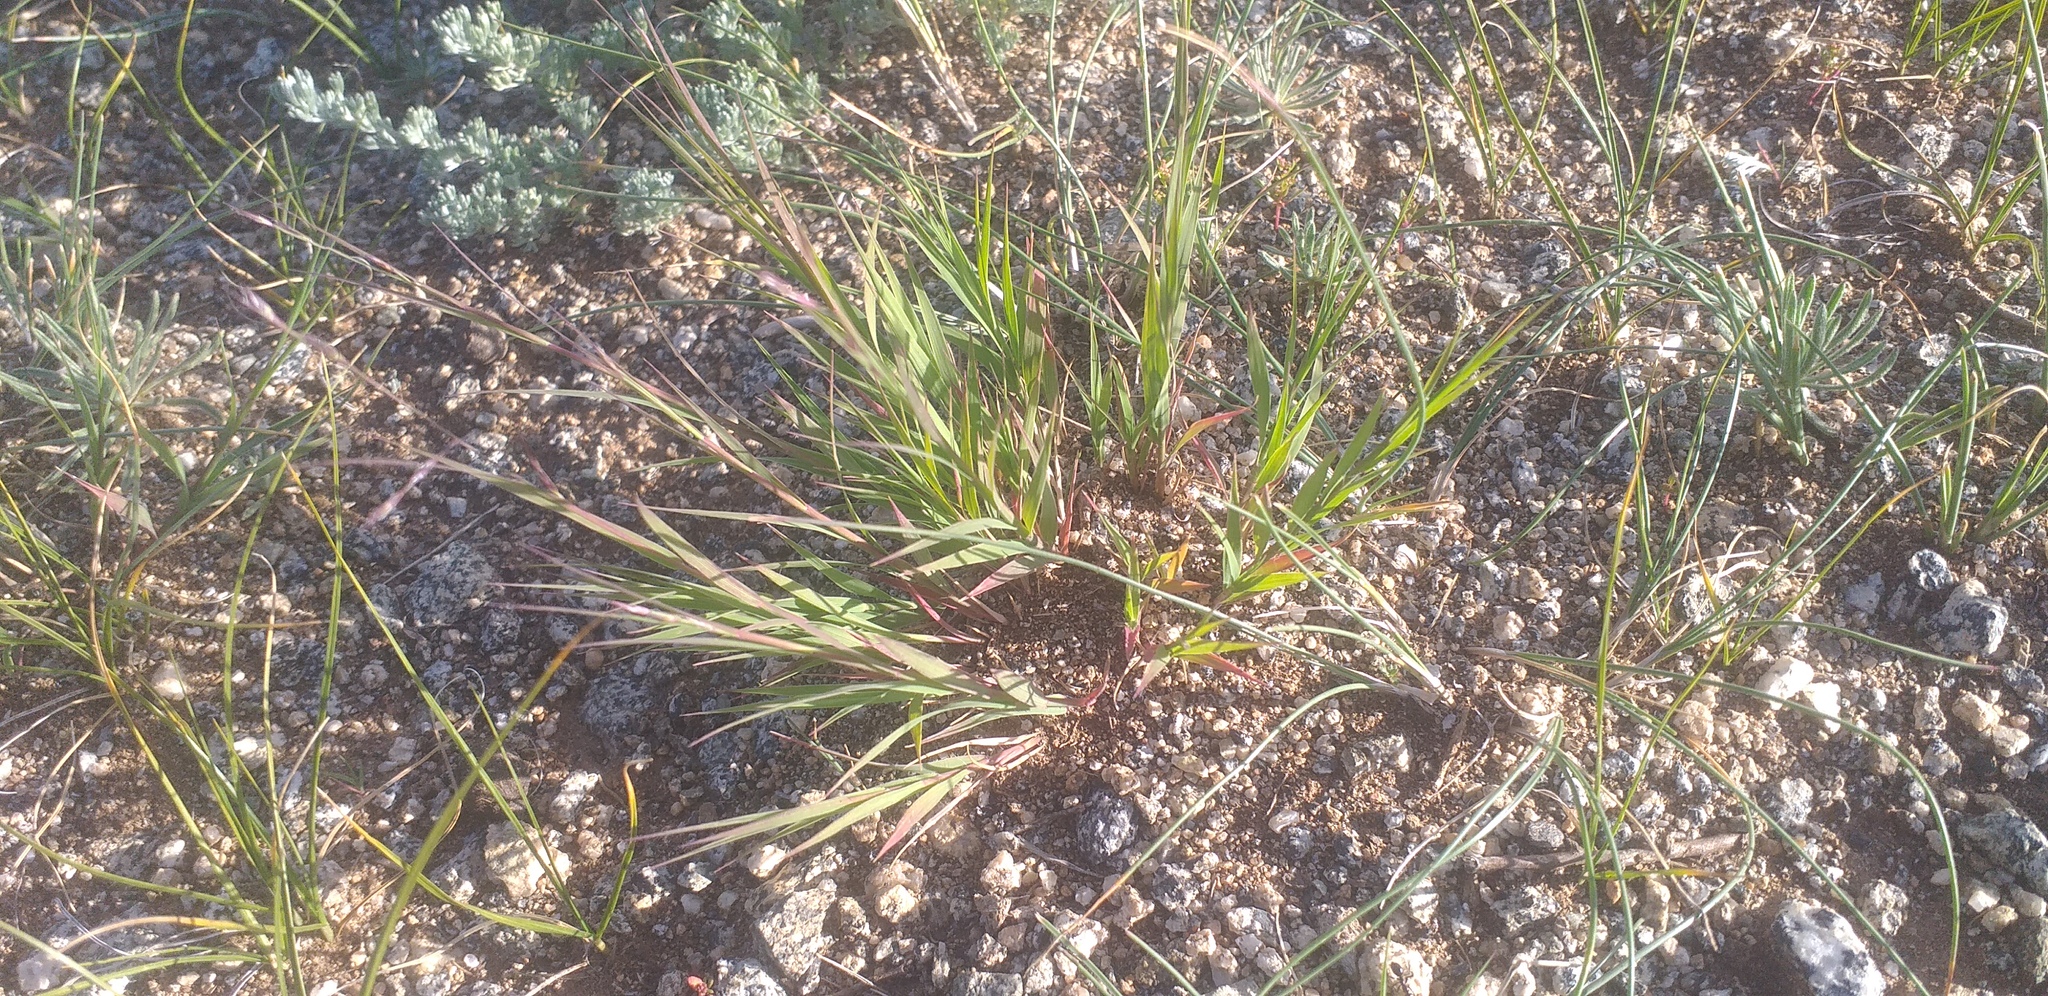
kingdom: Plantae
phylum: Tracheophyta
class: Liliopsida
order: Poales
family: Poaceae
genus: Cleistogenes
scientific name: Cleistogenes squarrosa
